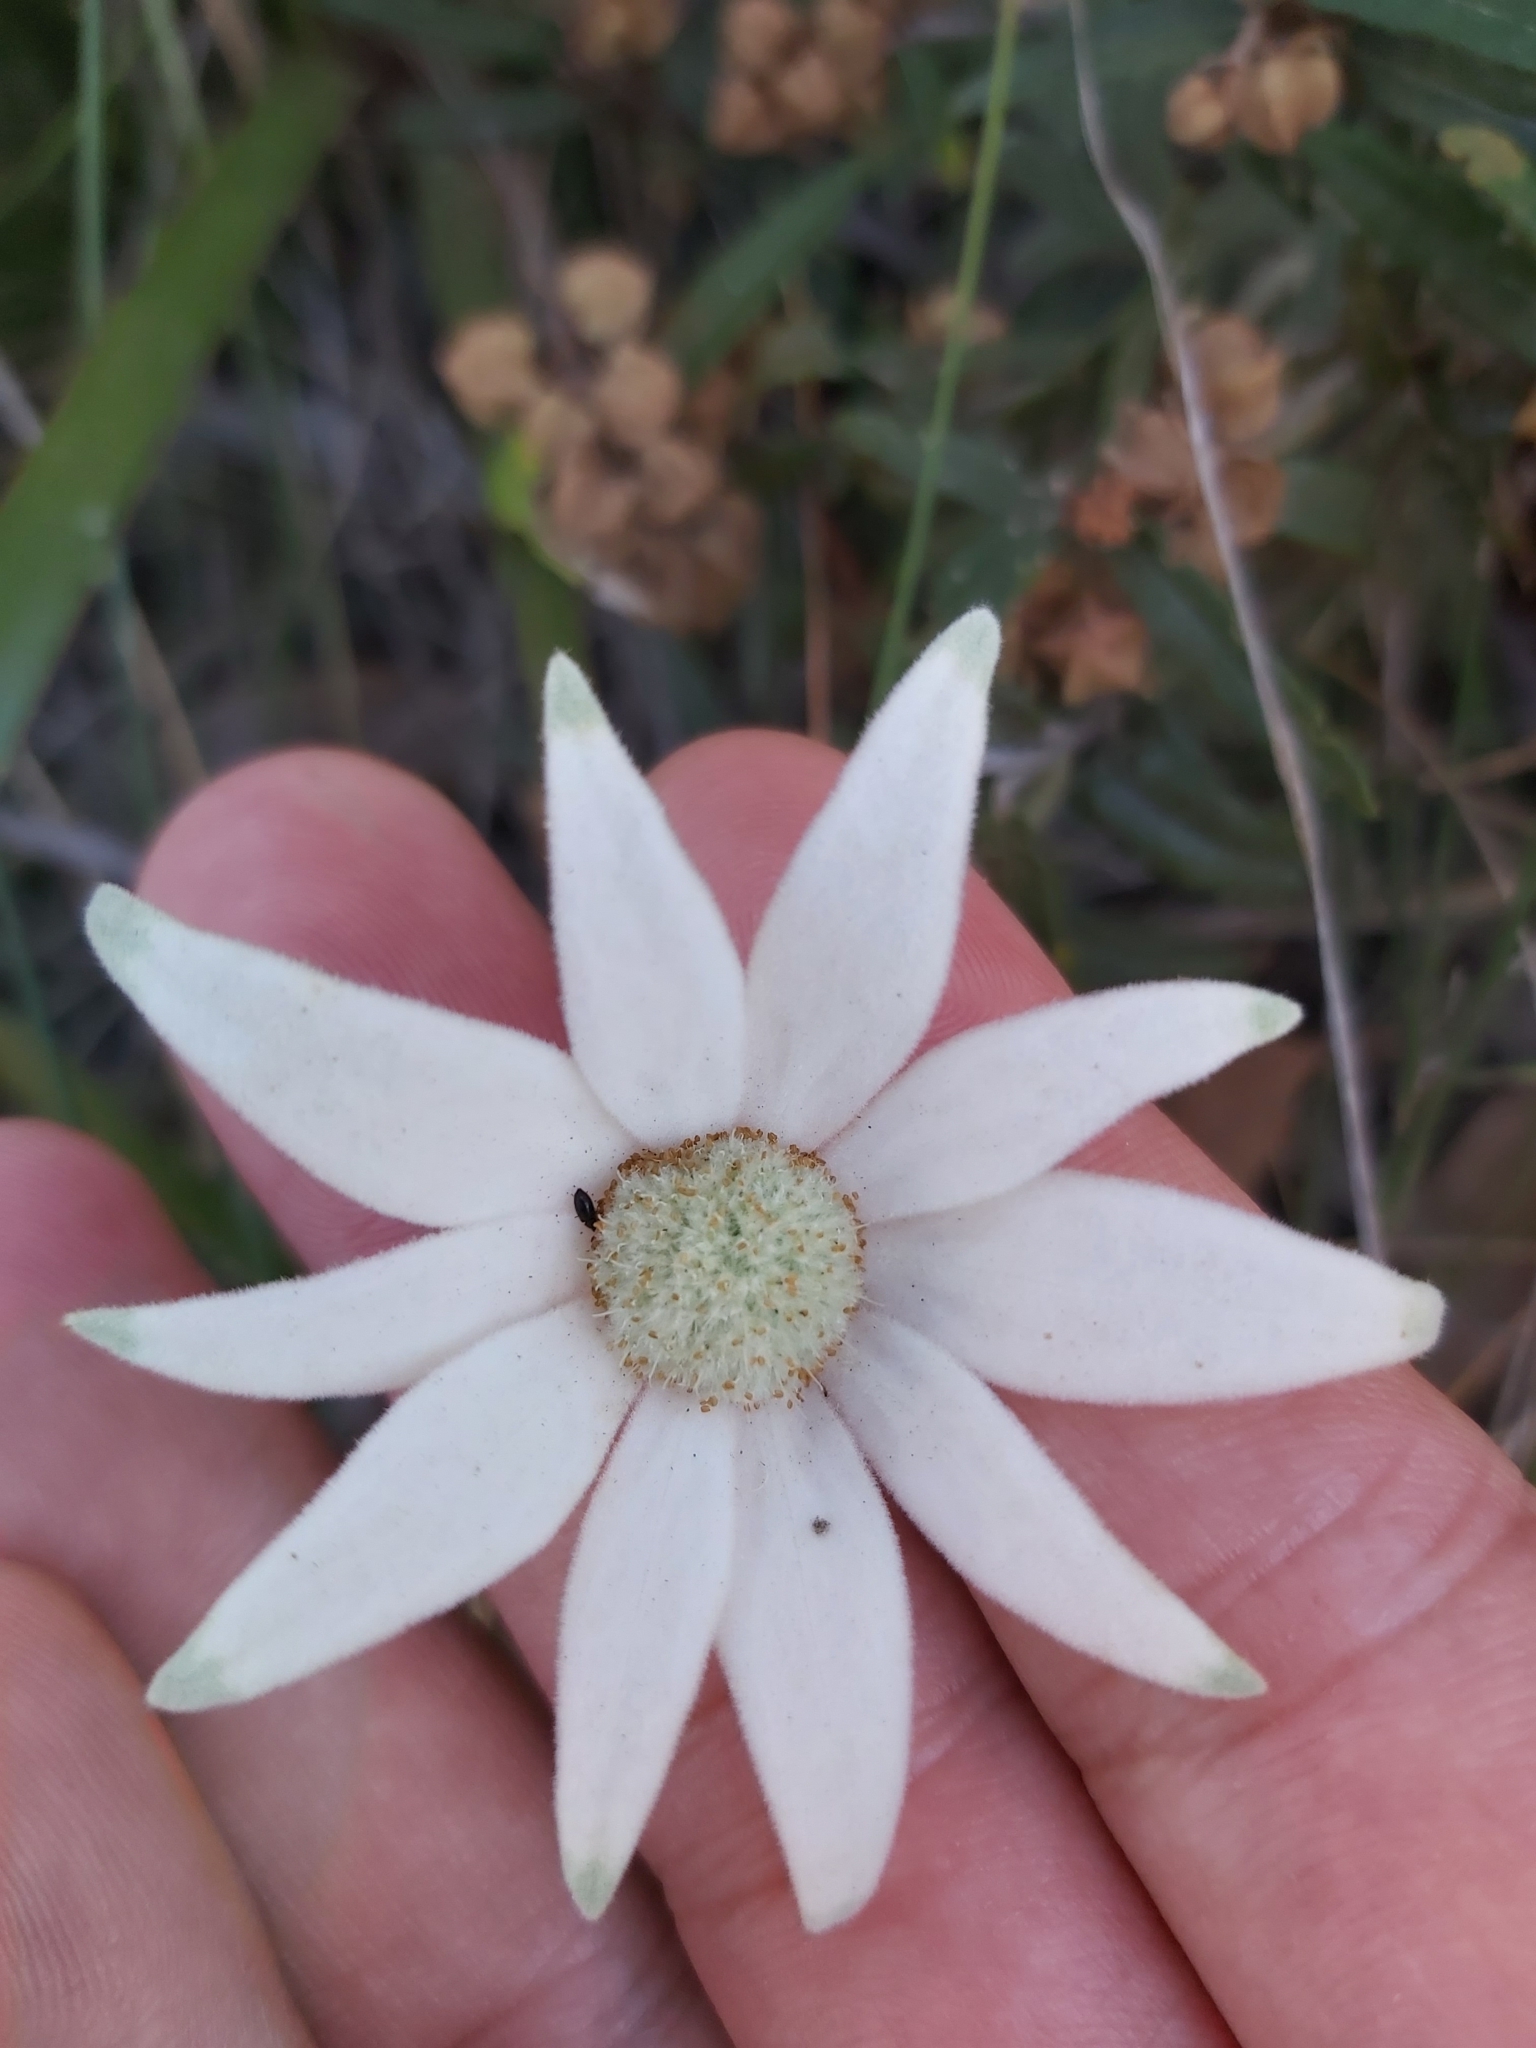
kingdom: Plantae
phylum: Tracheophyta
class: Magnoliopsida
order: Apiales
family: Apiaceae
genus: Actinotus
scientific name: Actinotus helianthi
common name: Flannel-flower
